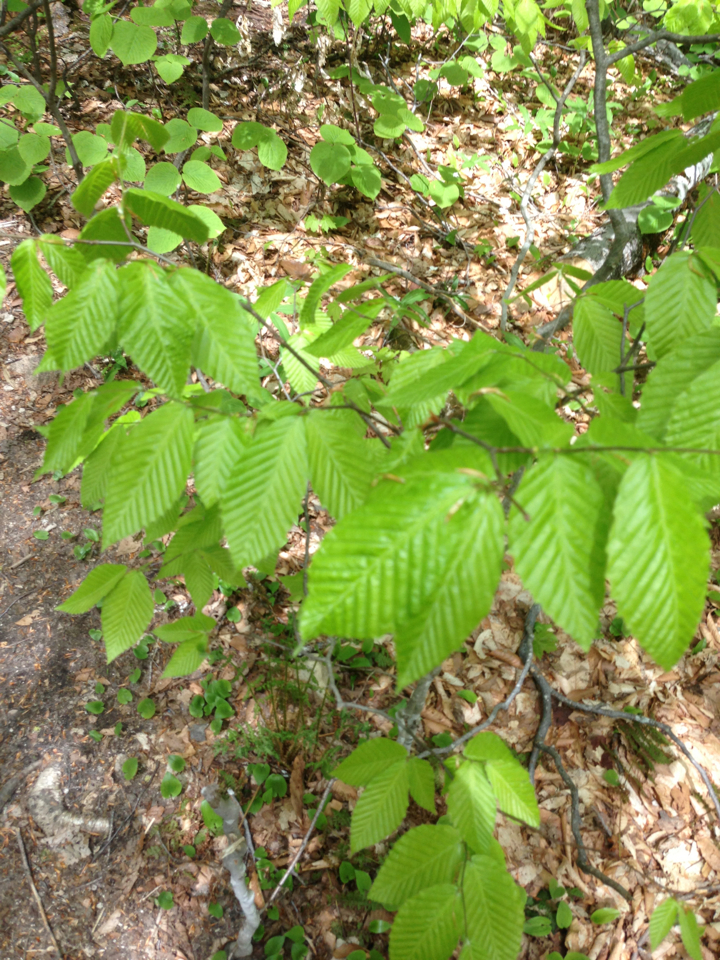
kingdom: Plantae
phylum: Tracheophyta
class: Magnoliopsida
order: Fagales
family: Fagaceae
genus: Fagus
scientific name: Fagus grandifolia
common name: American beech
